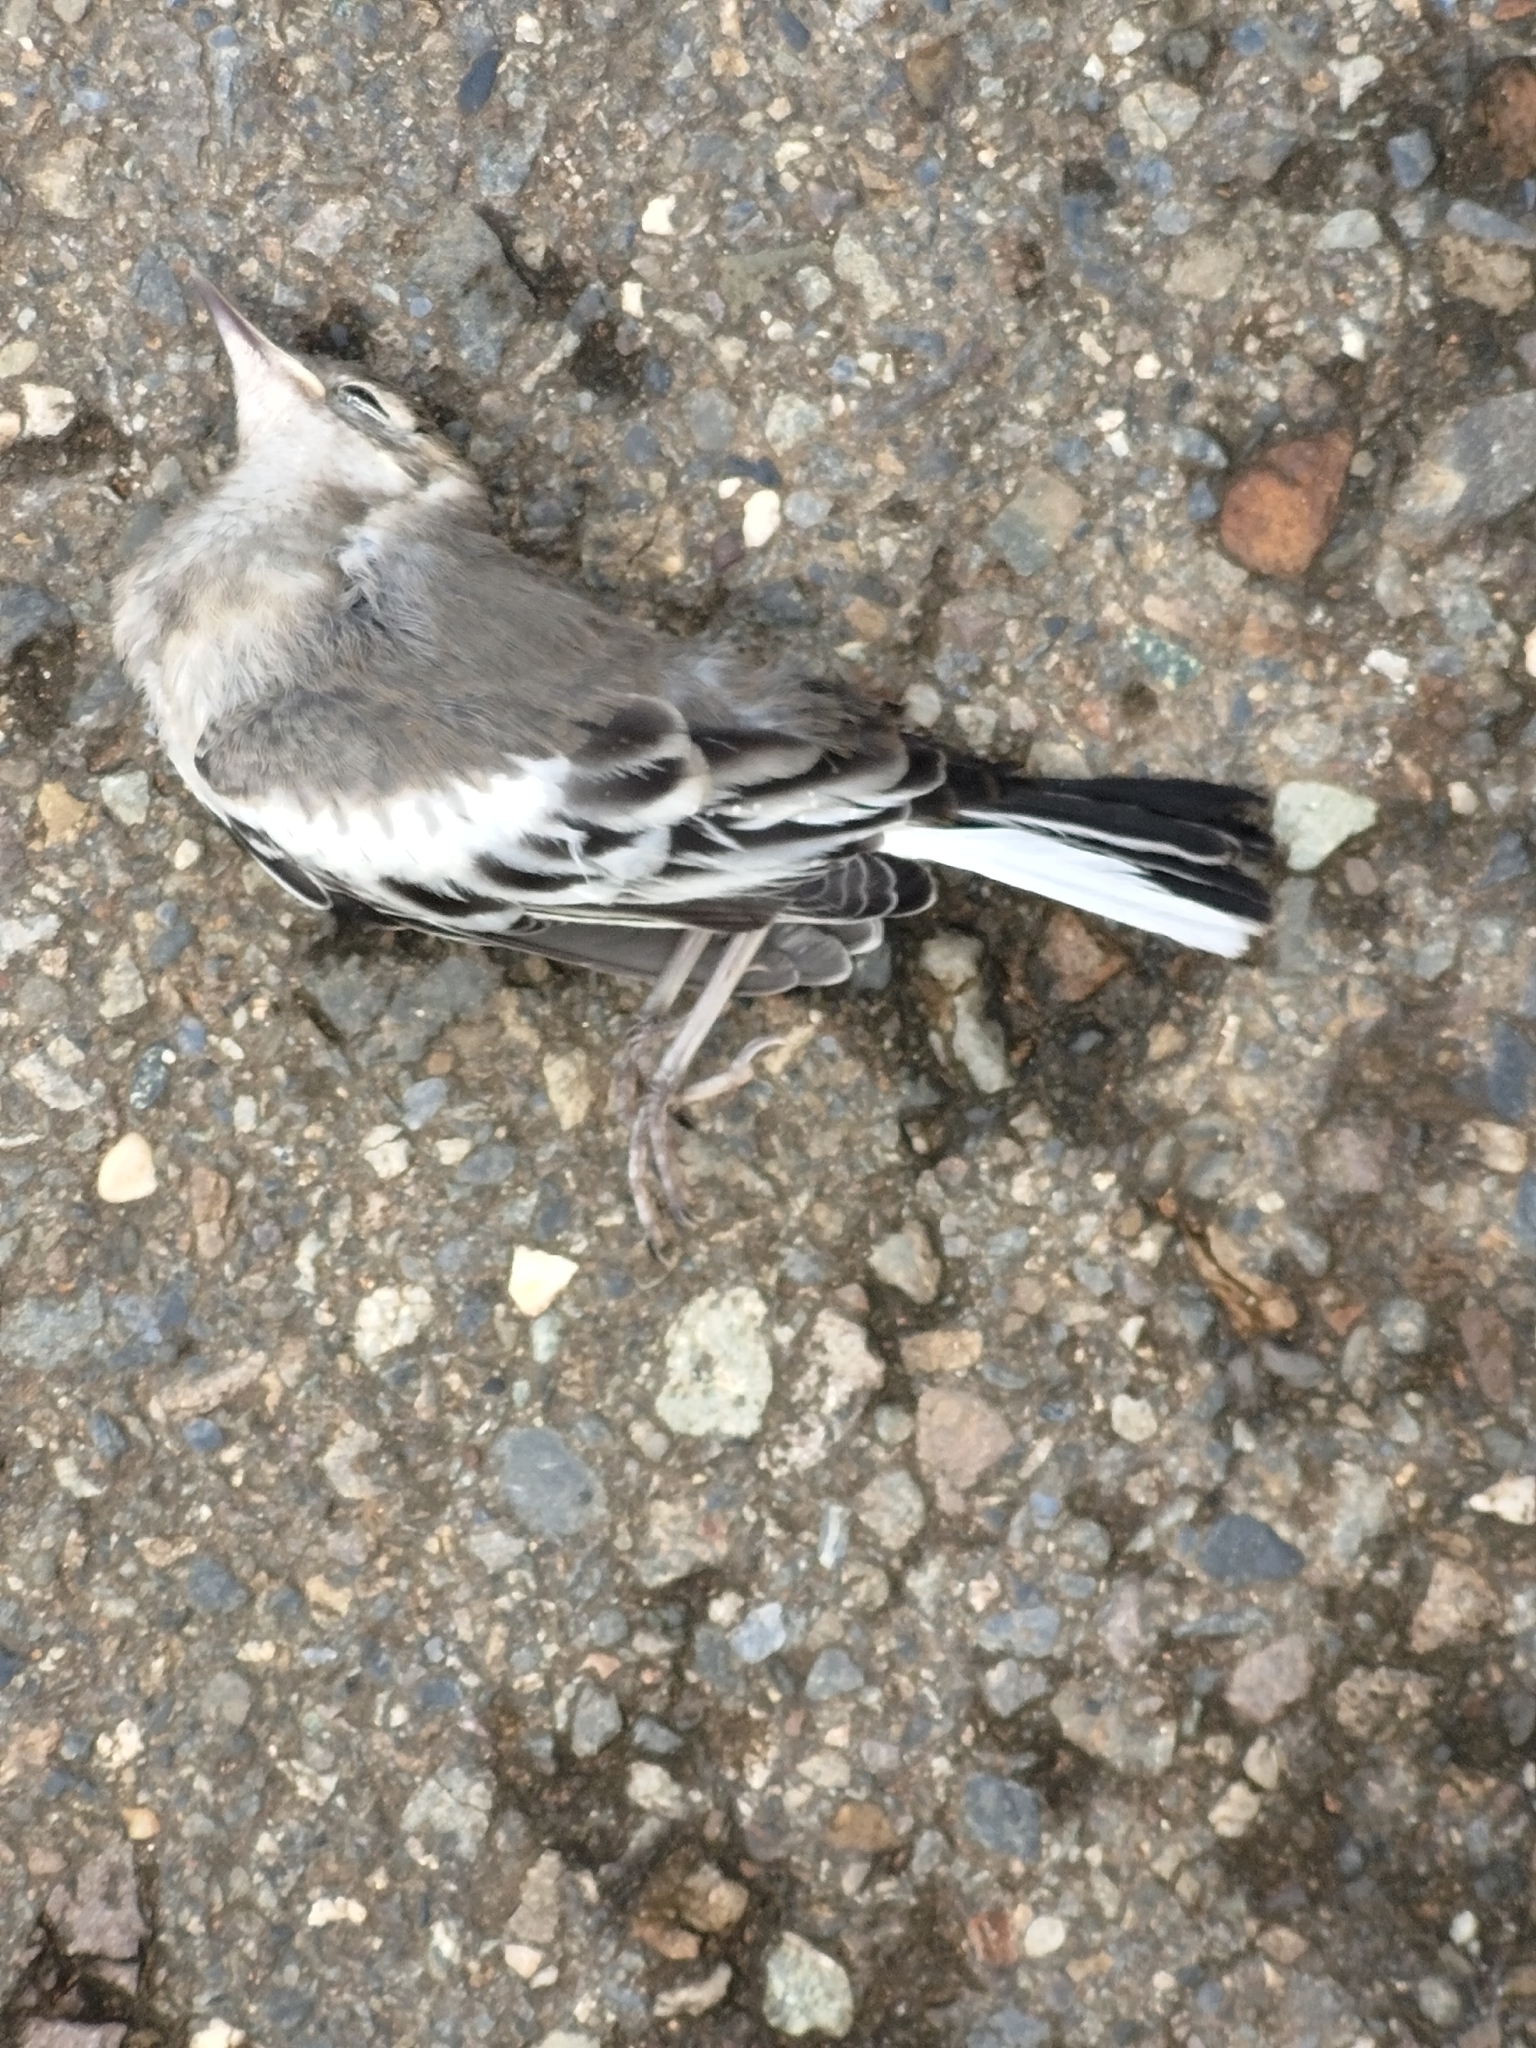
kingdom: Animalia
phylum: Chordata
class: Aves
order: Passeriformes
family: Motacillidae
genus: Motacilla
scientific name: Motacilla alba
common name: White wagtail
